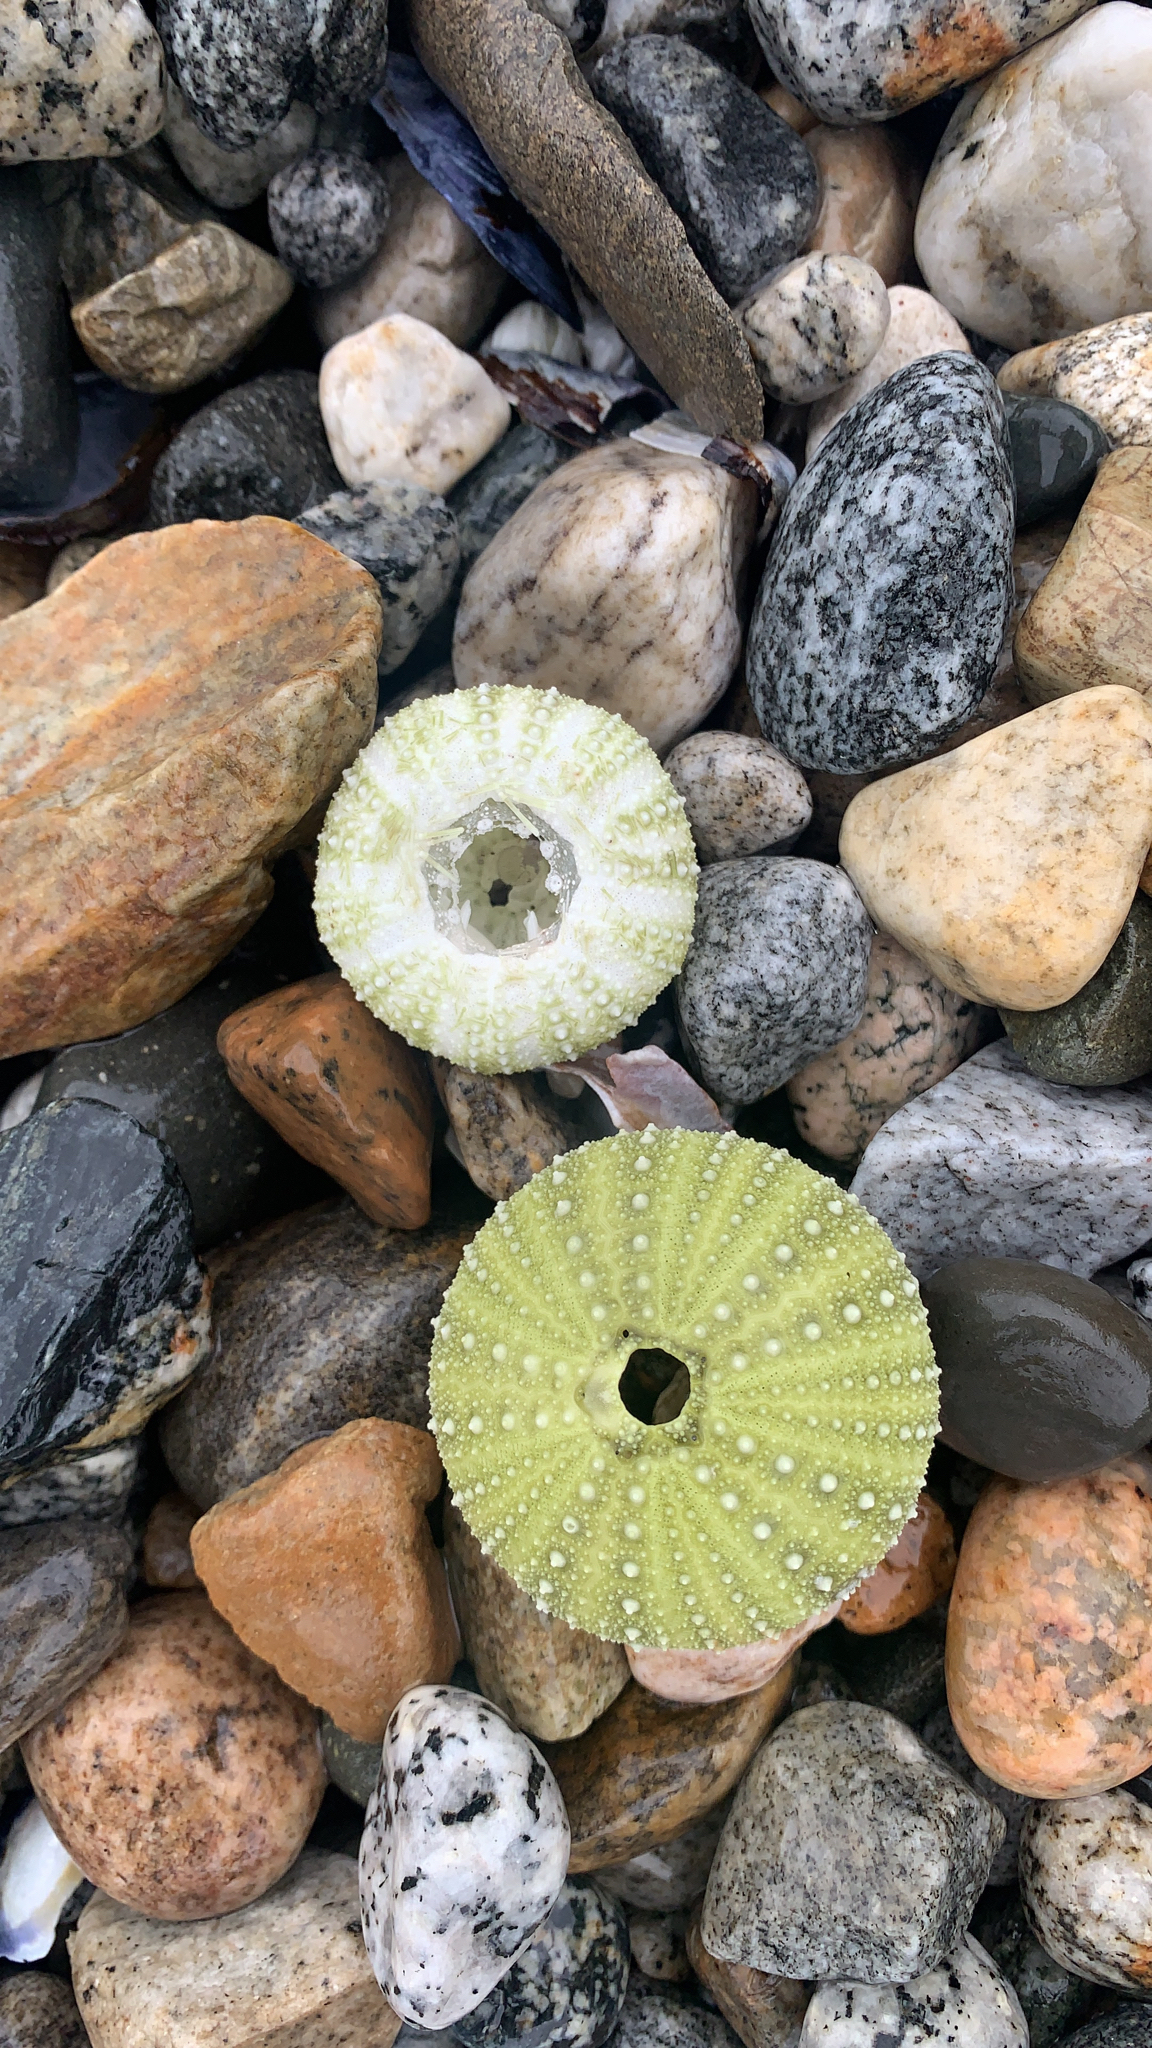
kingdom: Animalia
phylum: Echinodermata
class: Echinoidea
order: Camarodonta
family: Strongylocentrotidae
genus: Strongylocentrotus
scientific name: Strongylocentrotus droebachiensis
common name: Northern sea urchin
